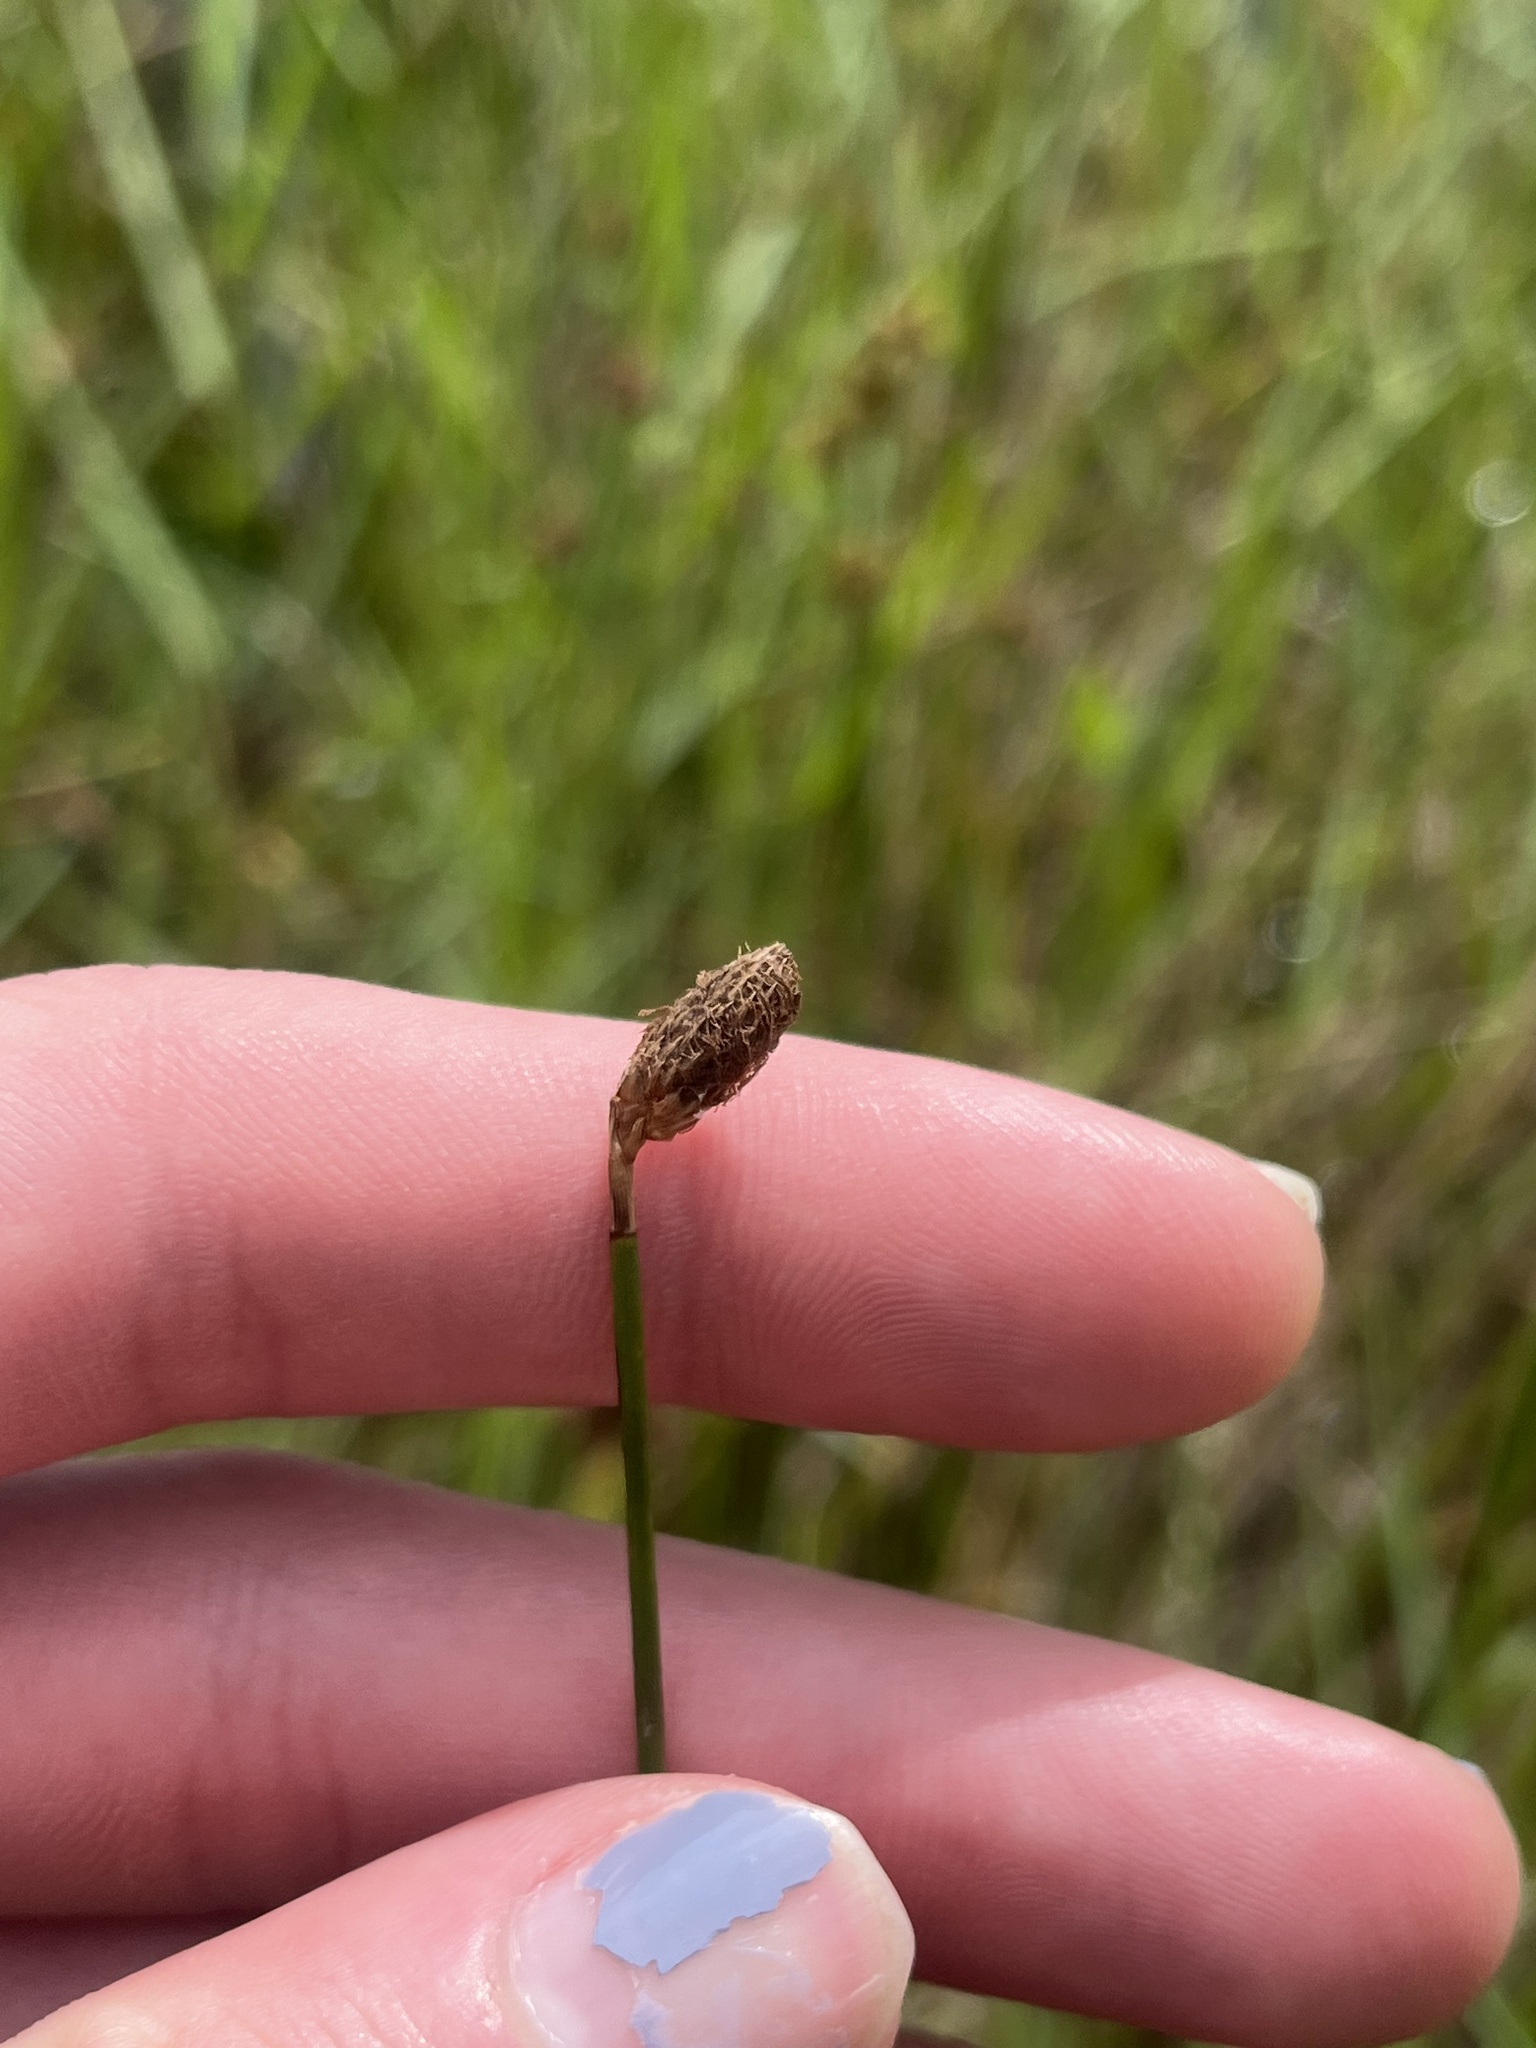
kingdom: Plantae
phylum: Tracheophyta
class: Liliopsida
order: Poales
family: Cyperaceae
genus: Fuirena
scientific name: Fuirena scirpoidea
